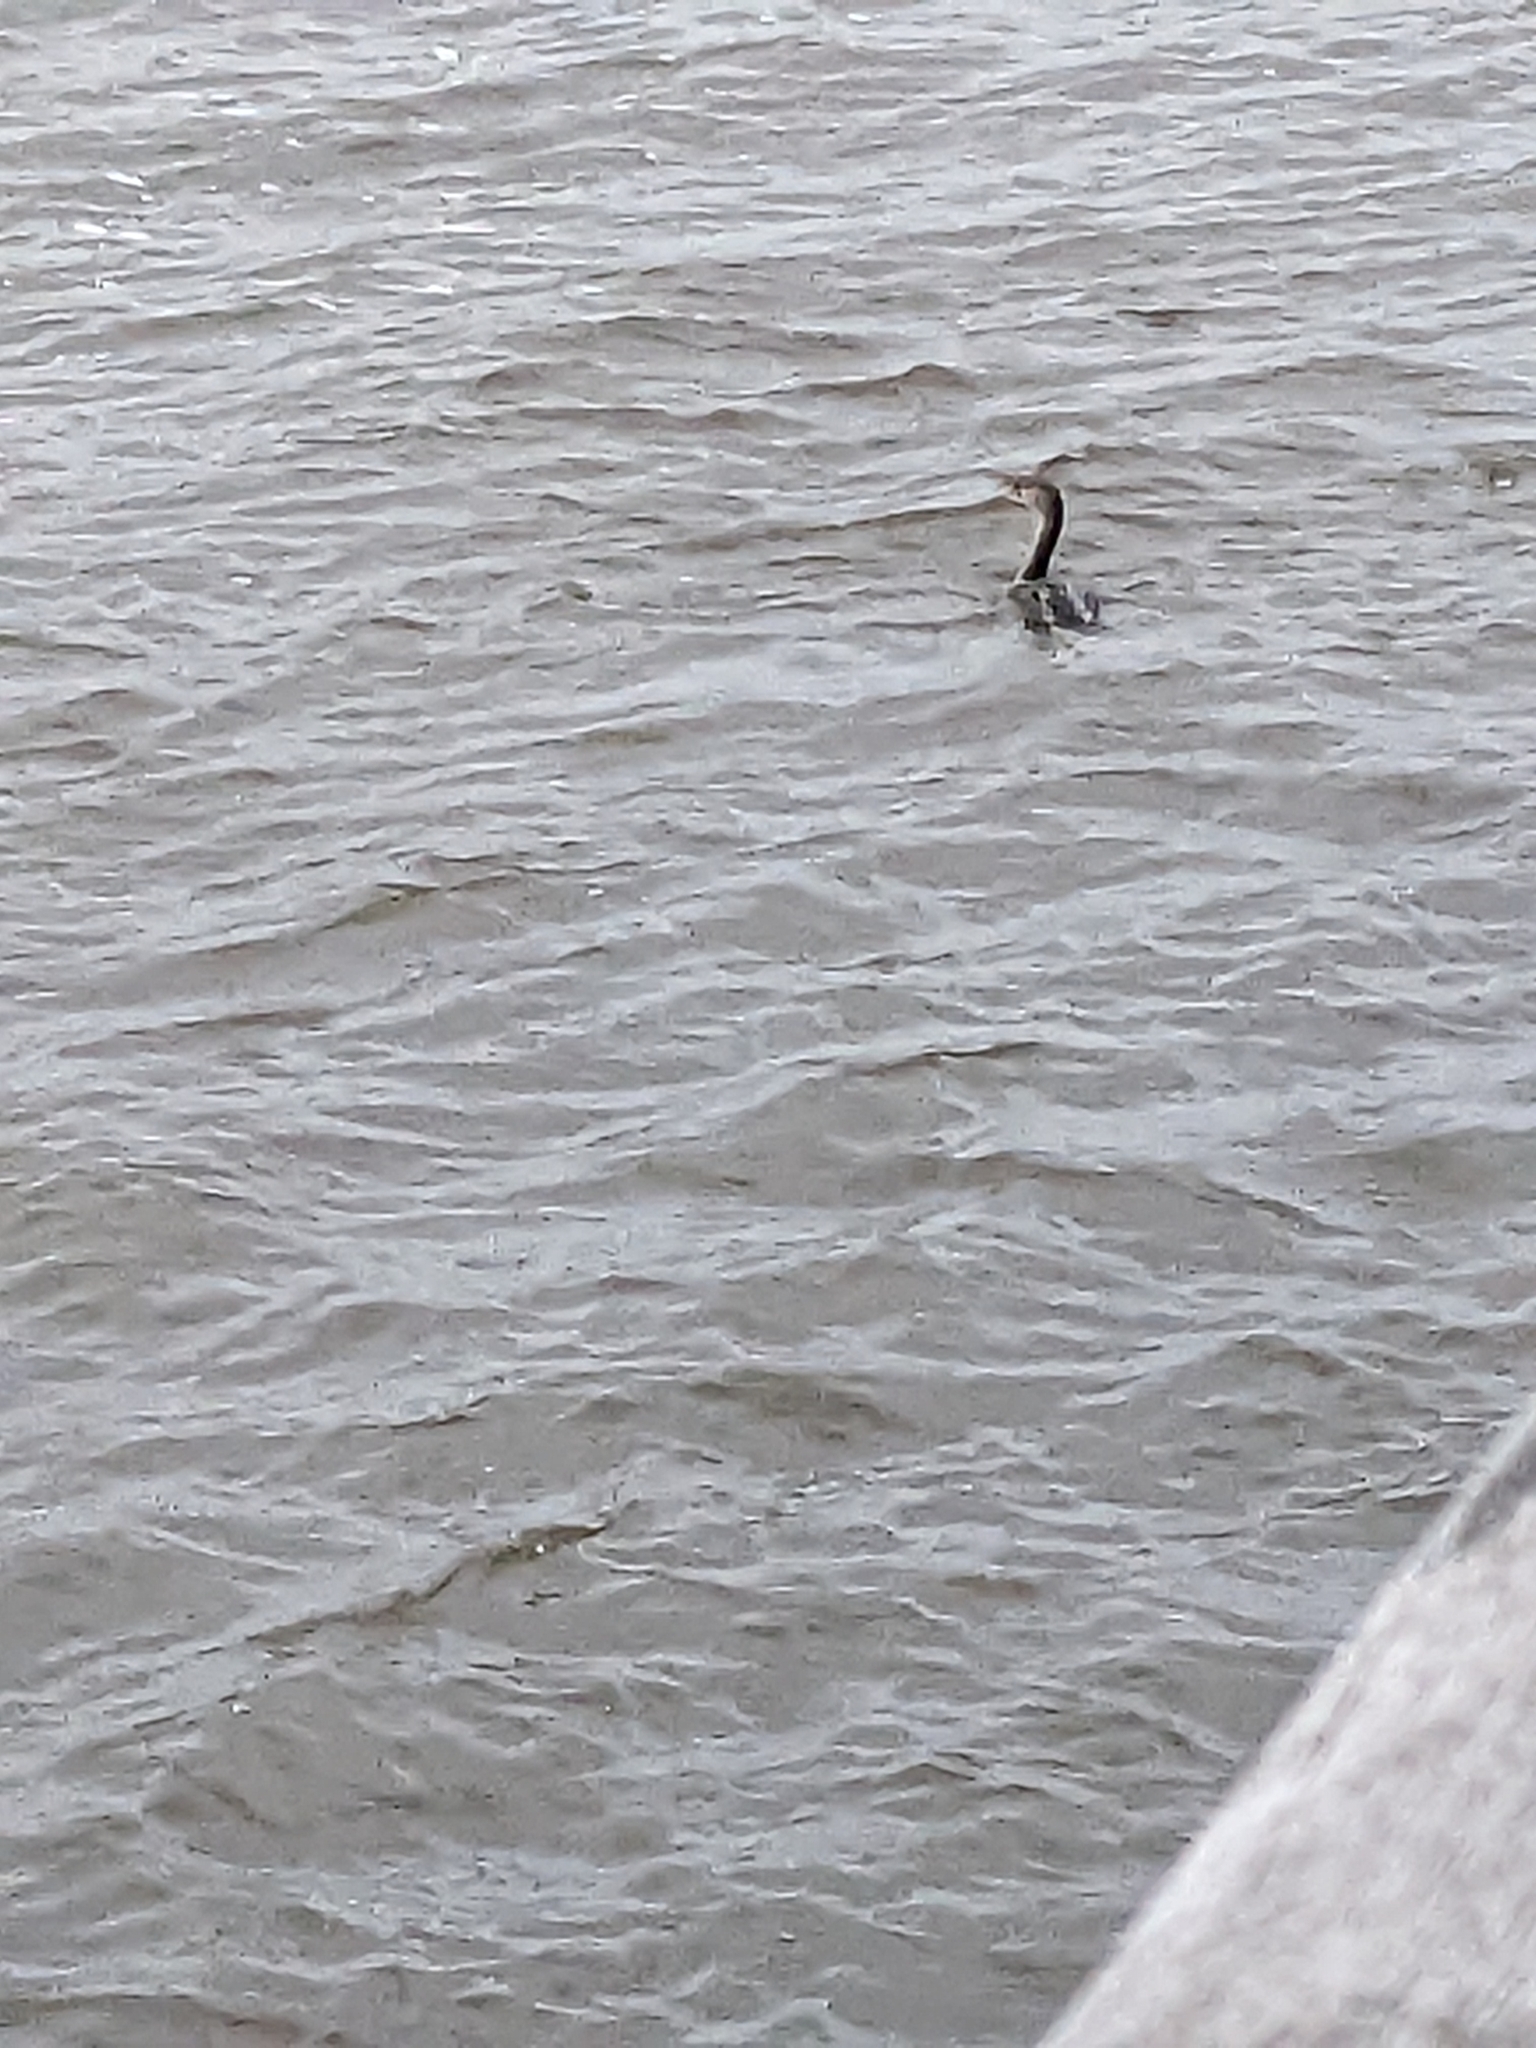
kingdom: Animalia
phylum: Chordata
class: Aves
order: Suliformes
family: Phalacrocoracidae
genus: Phalacrocorax
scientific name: Phalacrocorax auritus
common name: Double-crested cormorant
